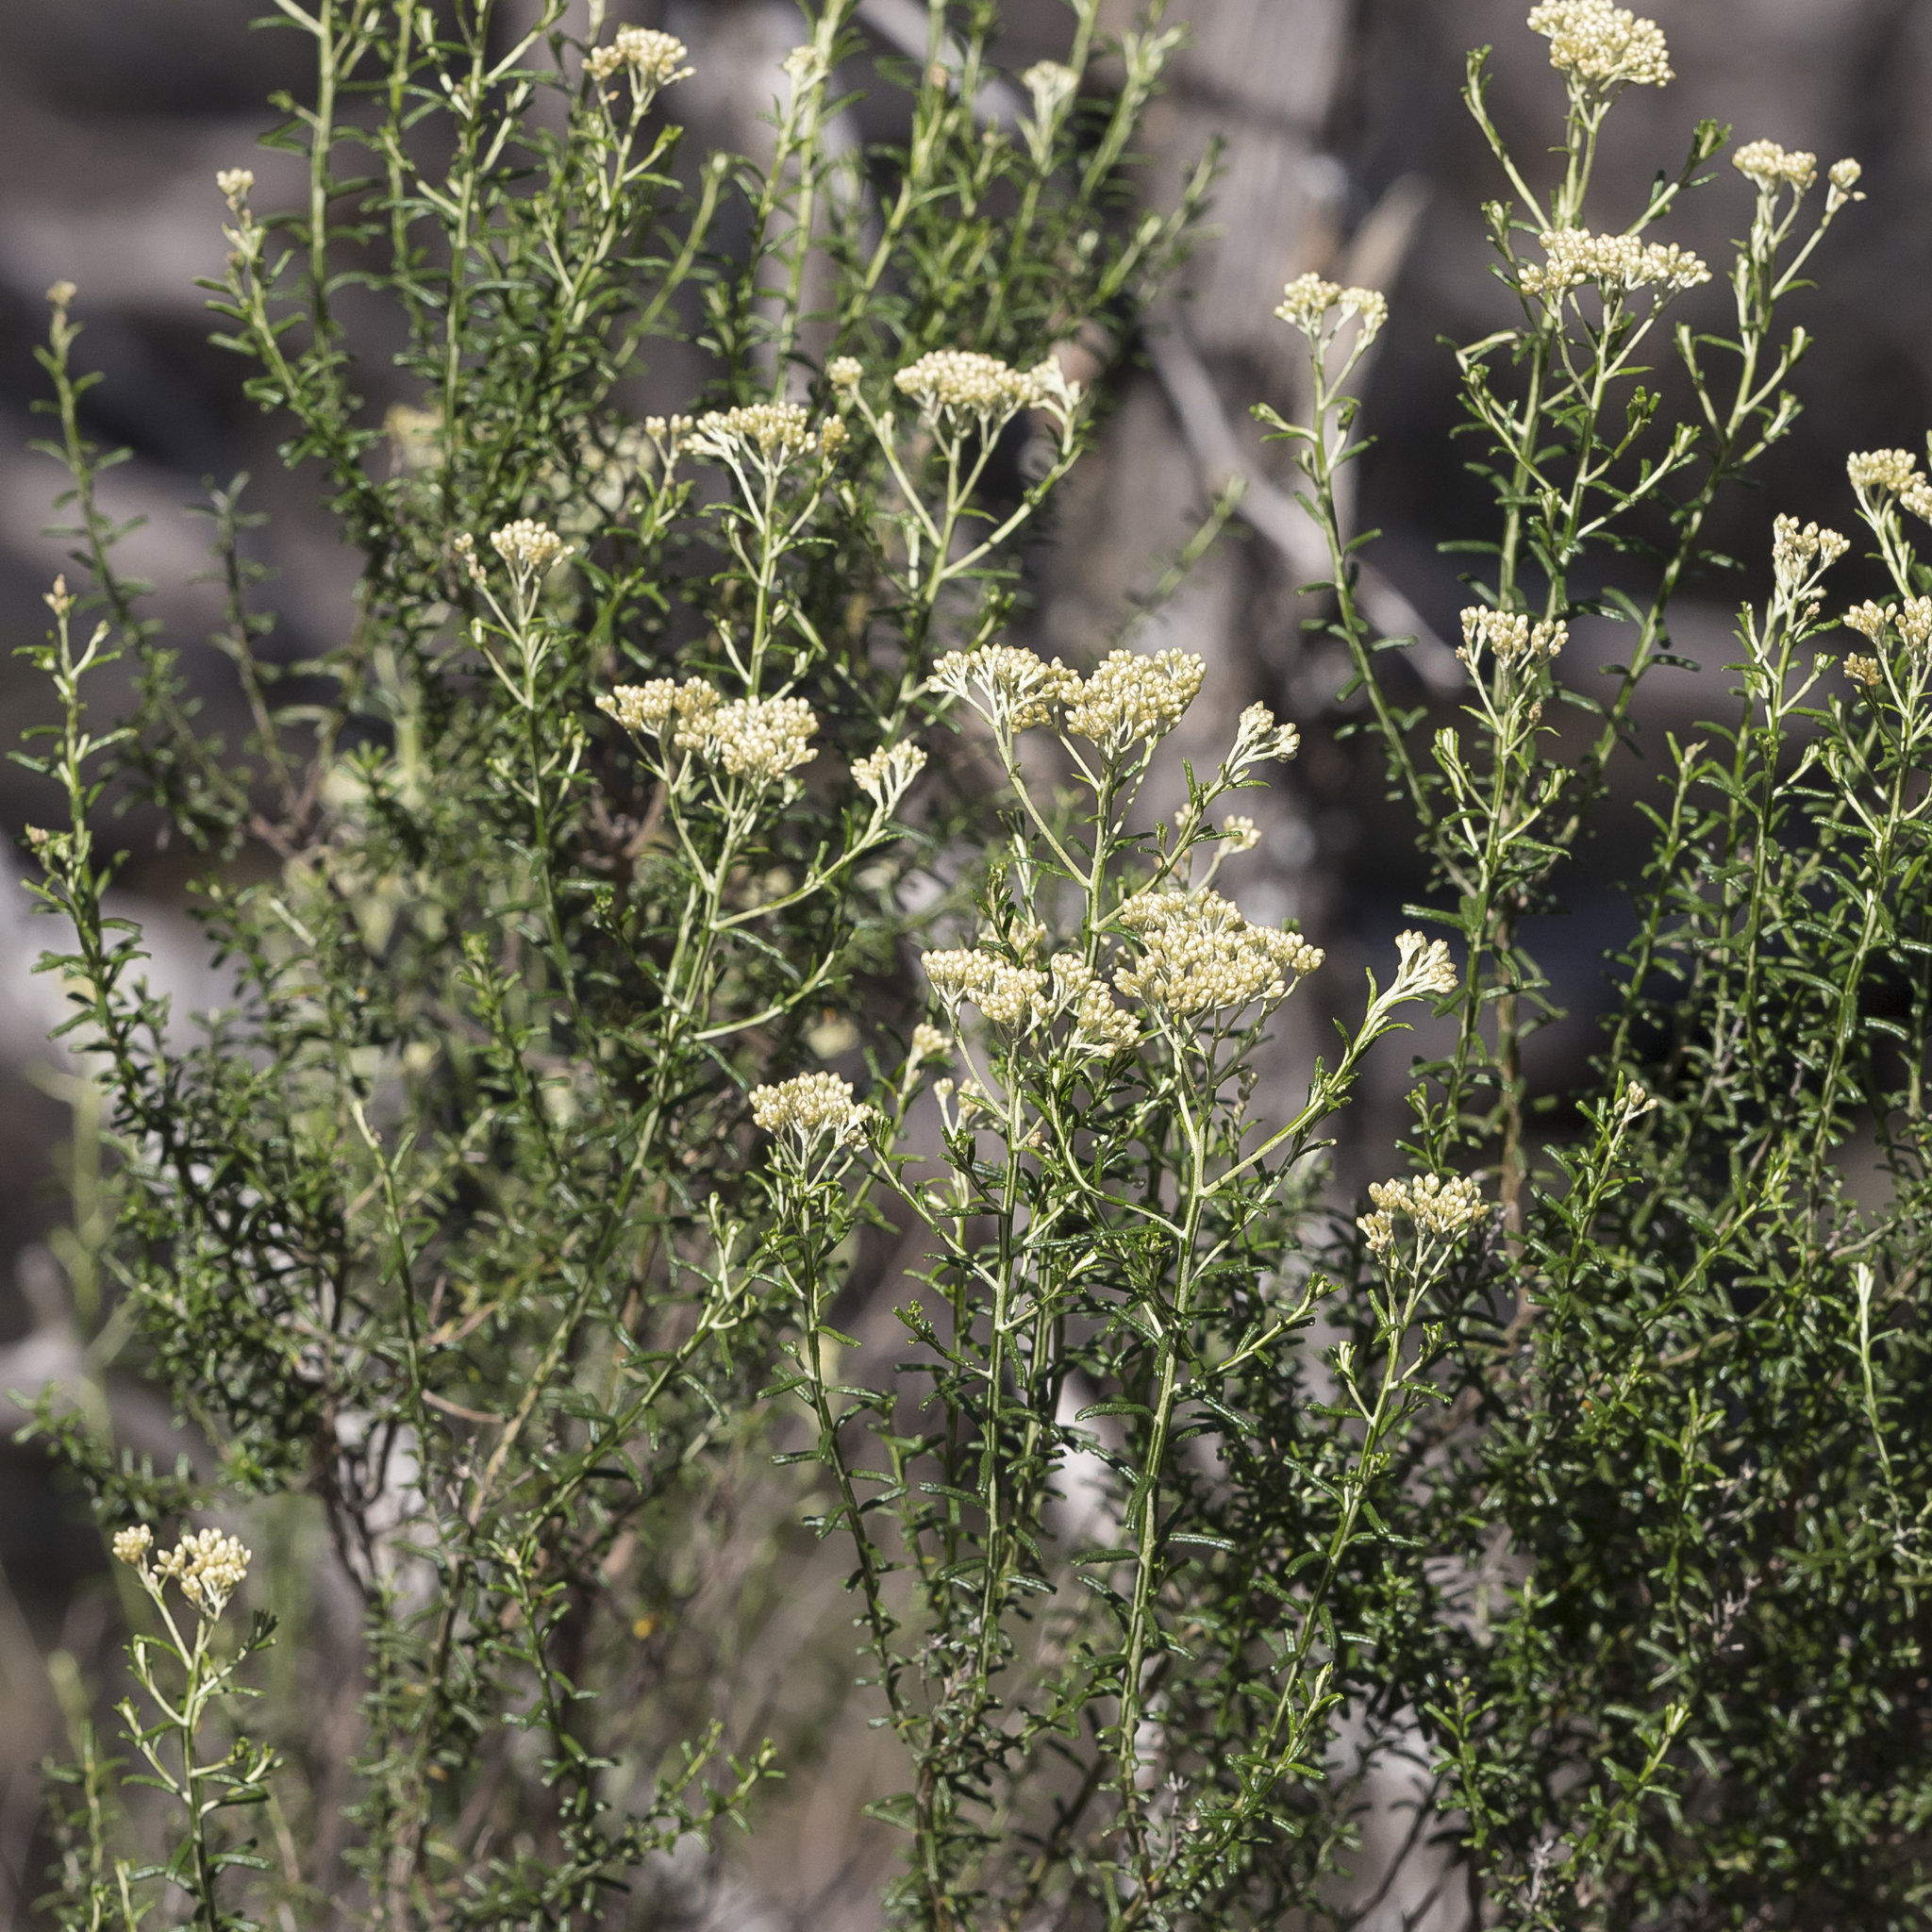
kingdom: Plantae
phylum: Tracheophyta
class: Magnoliopsida
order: Asterales
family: Asteraceae
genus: Ozothamnus
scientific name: Ozothamnus adnatus
